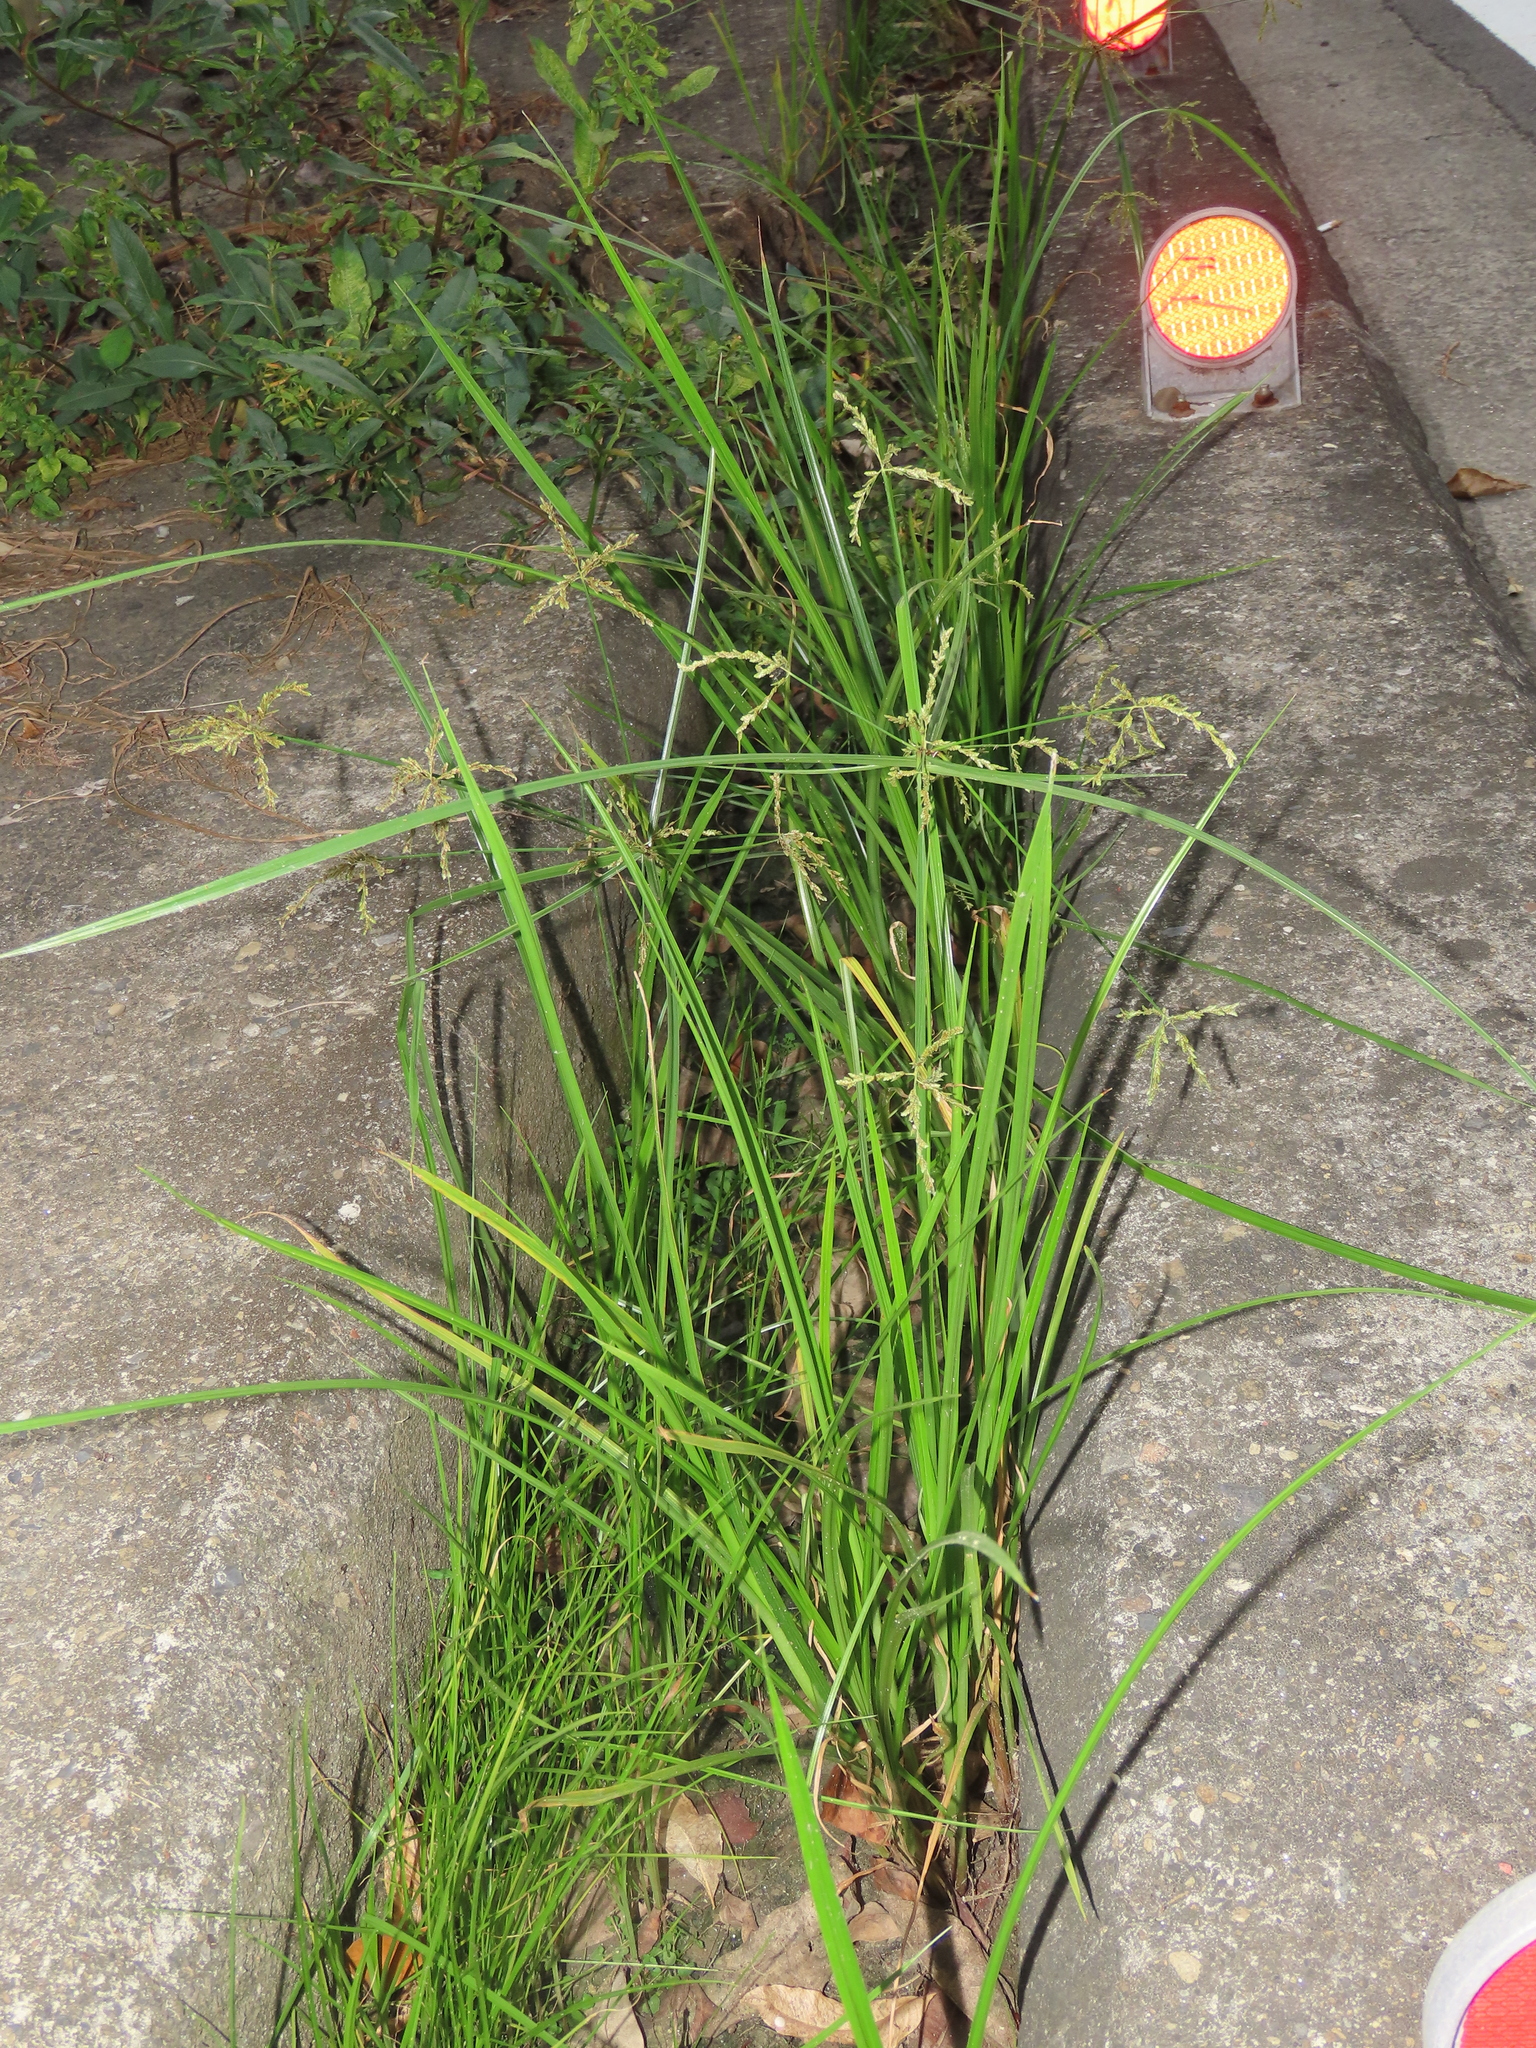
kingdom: Plantae
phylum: Tracheophyta
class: Liliopsida
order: Poales
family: Cyperaceae
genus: Cyperus
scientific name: Cyperus iria
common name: Ricefield flatsedge
